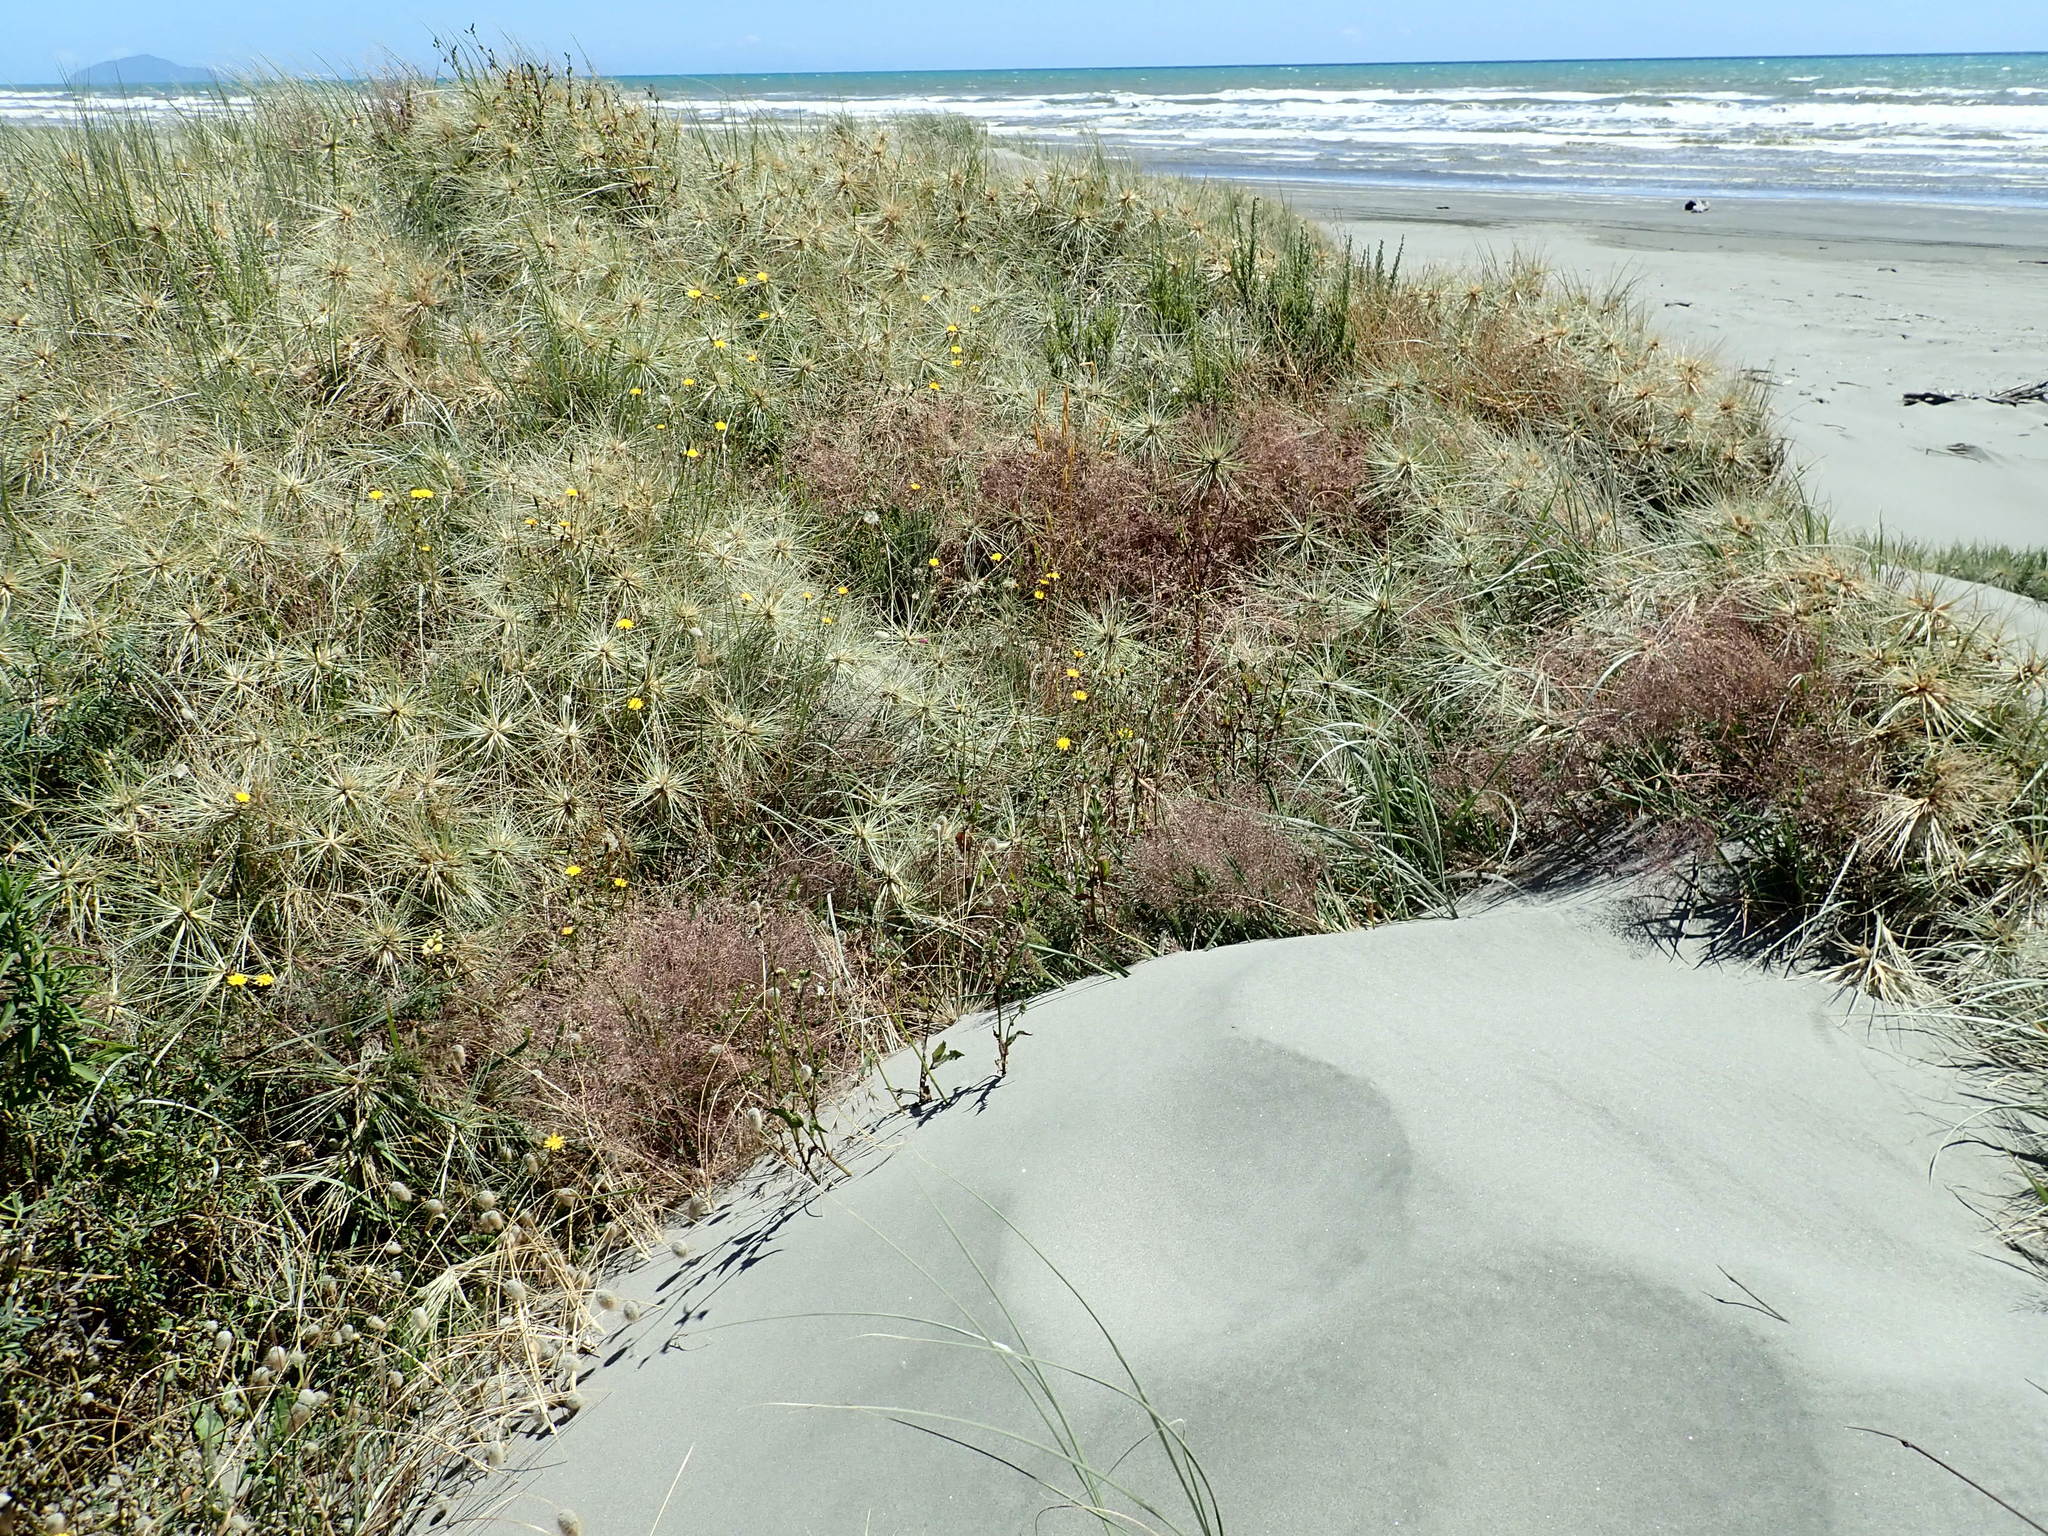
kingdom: Plantae
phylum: Tracheophyta
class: Liliopsida
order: Poales
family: Poaceae
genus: Lachnagrostis
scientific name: Lachnagrostis billardierei
